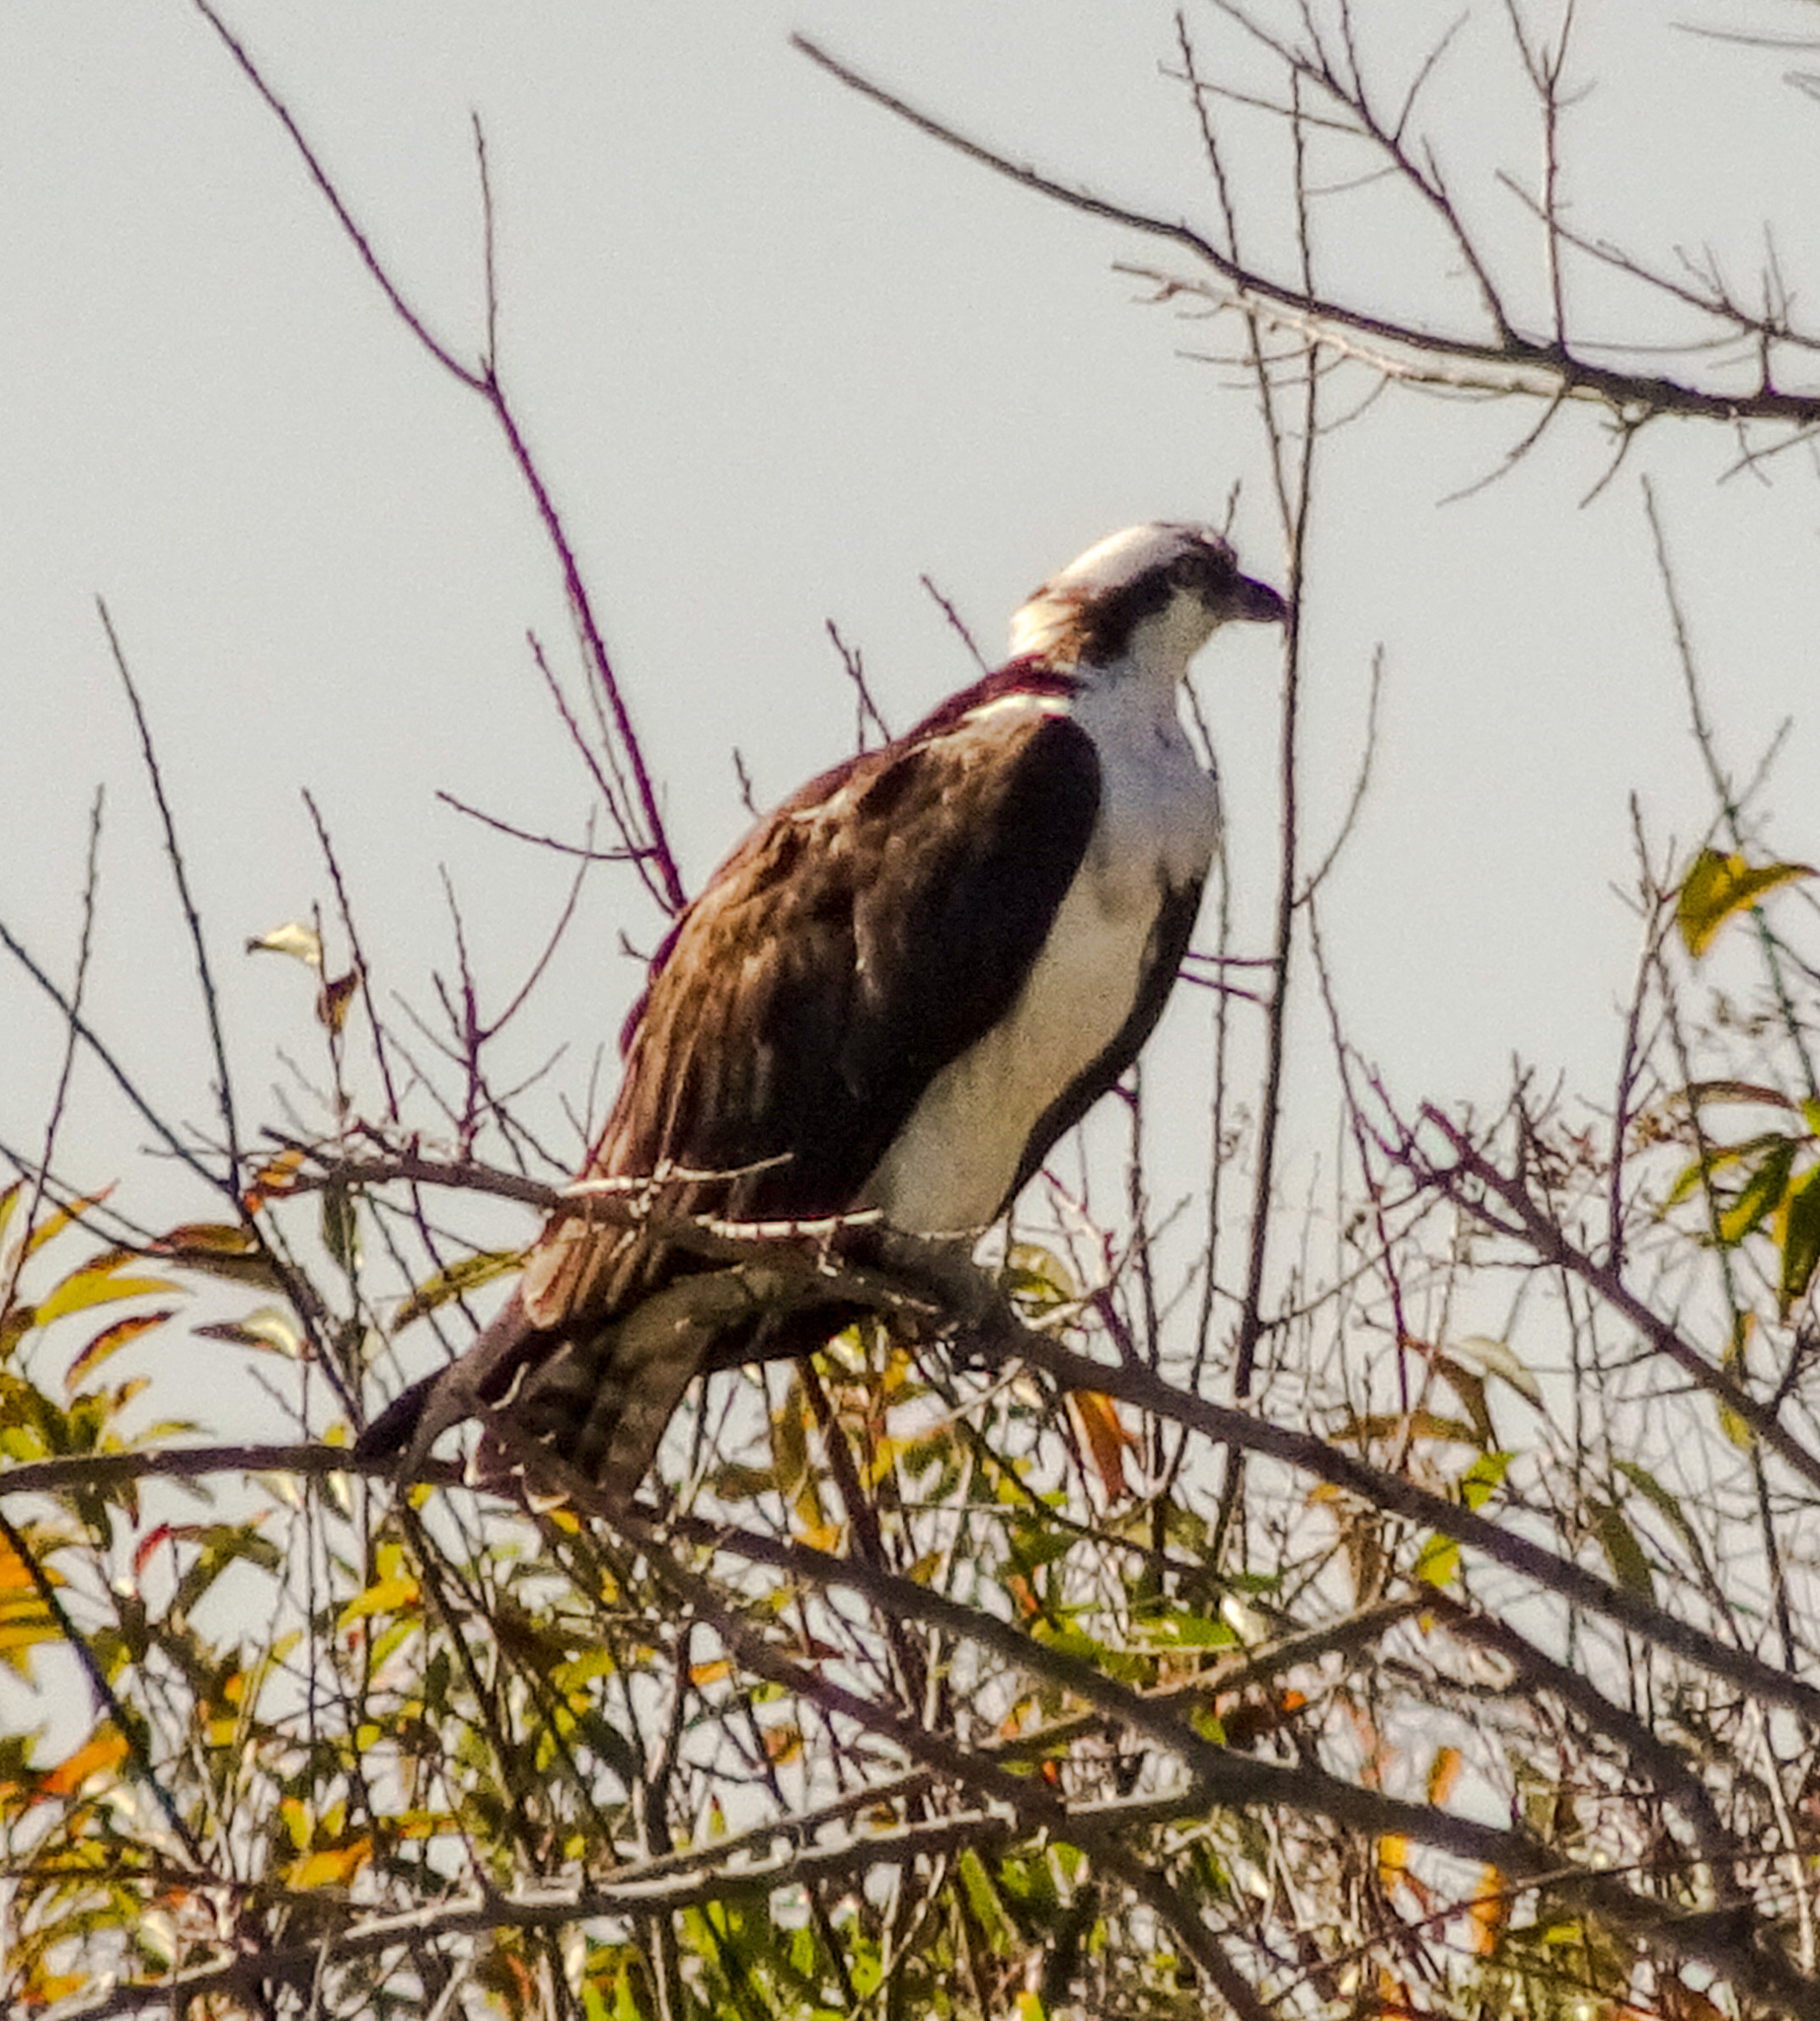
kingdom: Animalia
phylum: Chordata
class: Aves
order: Accipitriformes
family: Pandionidae
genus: Pandion
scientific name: Pandion haliaetus
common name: Osprey
